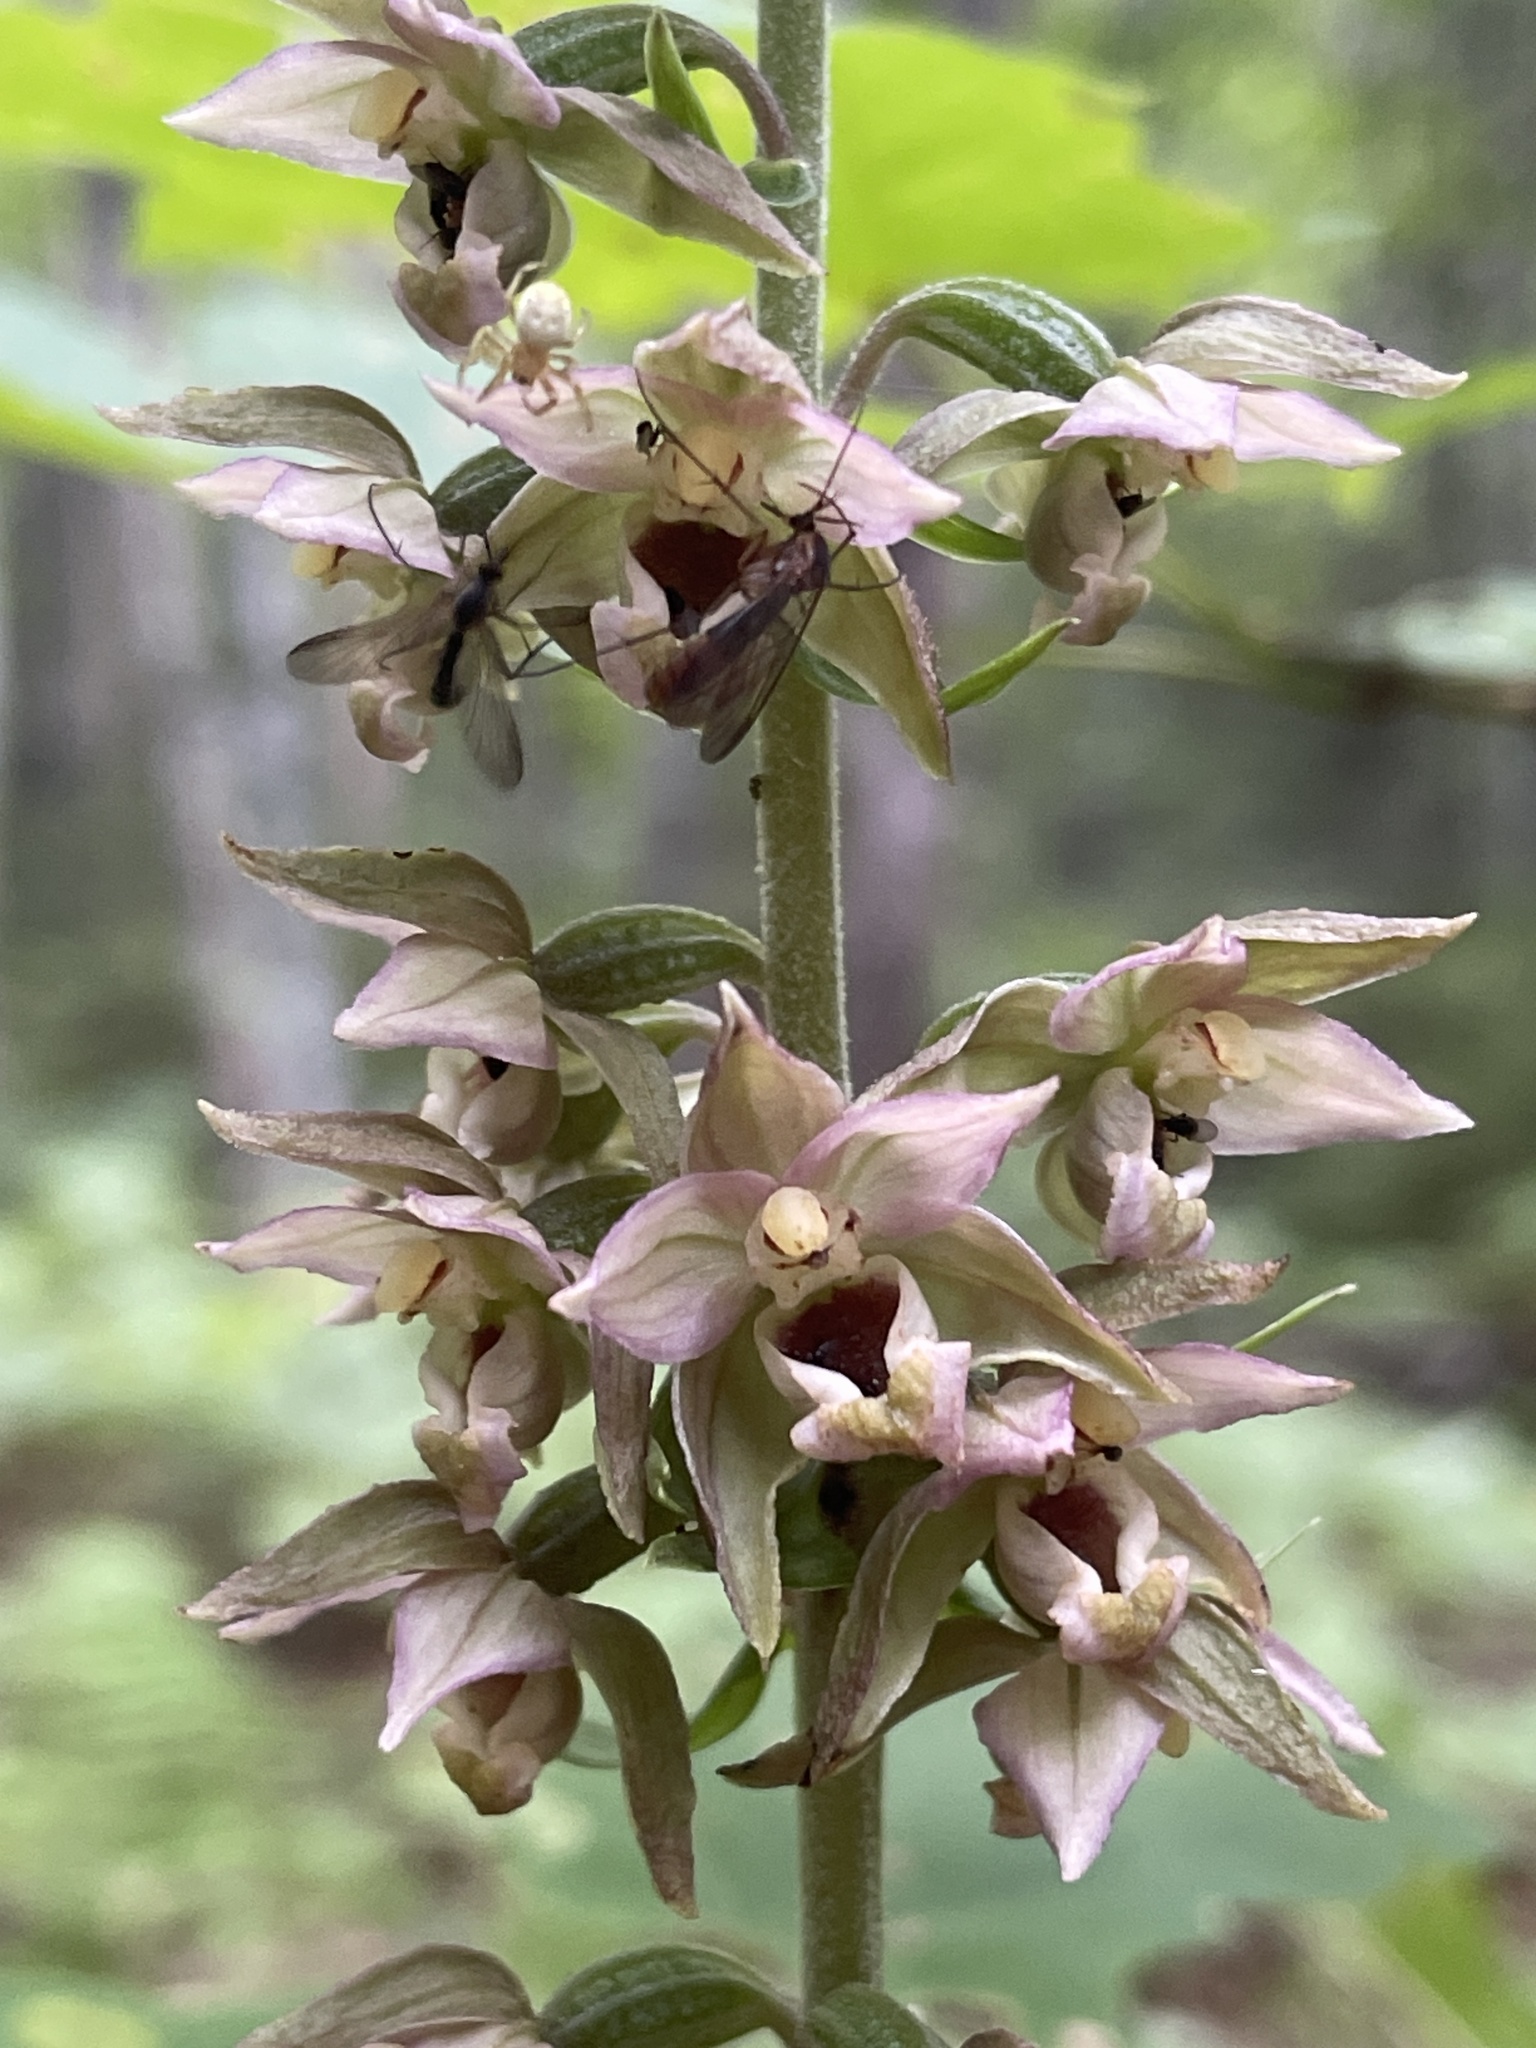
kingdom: Plantae
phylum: Tracheophyta
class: Liliopsida
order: Asparagales
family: Orchidaceae
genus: Epipactis
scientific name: Epipactis helleborine
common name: Broad-leaved helleborine
